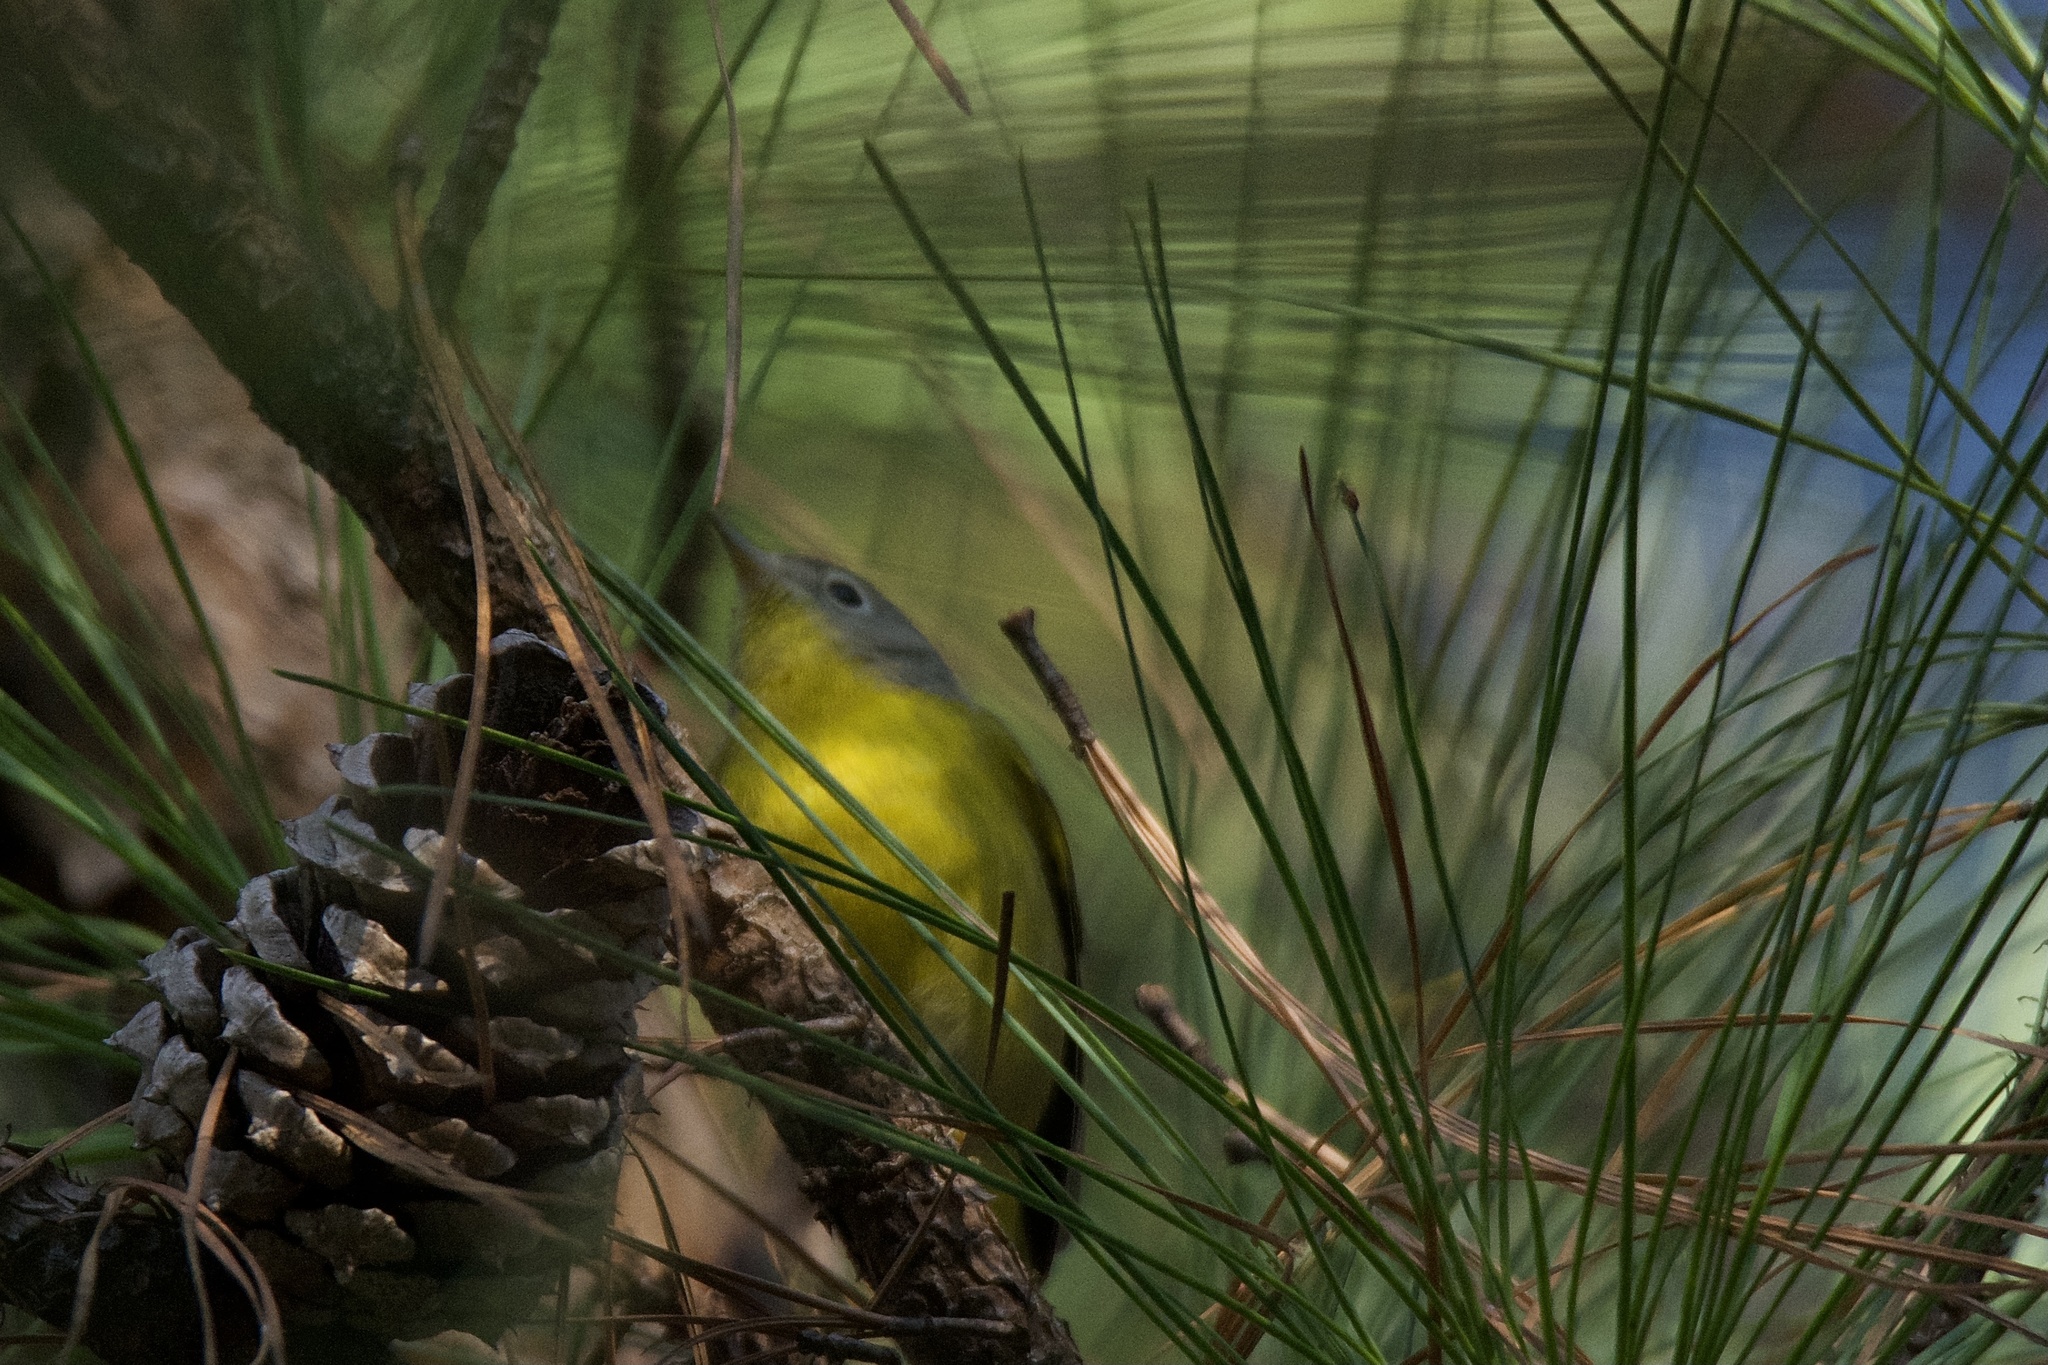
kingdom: Animalia
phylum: Chordata
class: Aves
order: Passeriformes
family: Parulidae
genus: Leiothlypis
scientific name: Leiothlypis ruficapilla
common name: Nashville warbler
